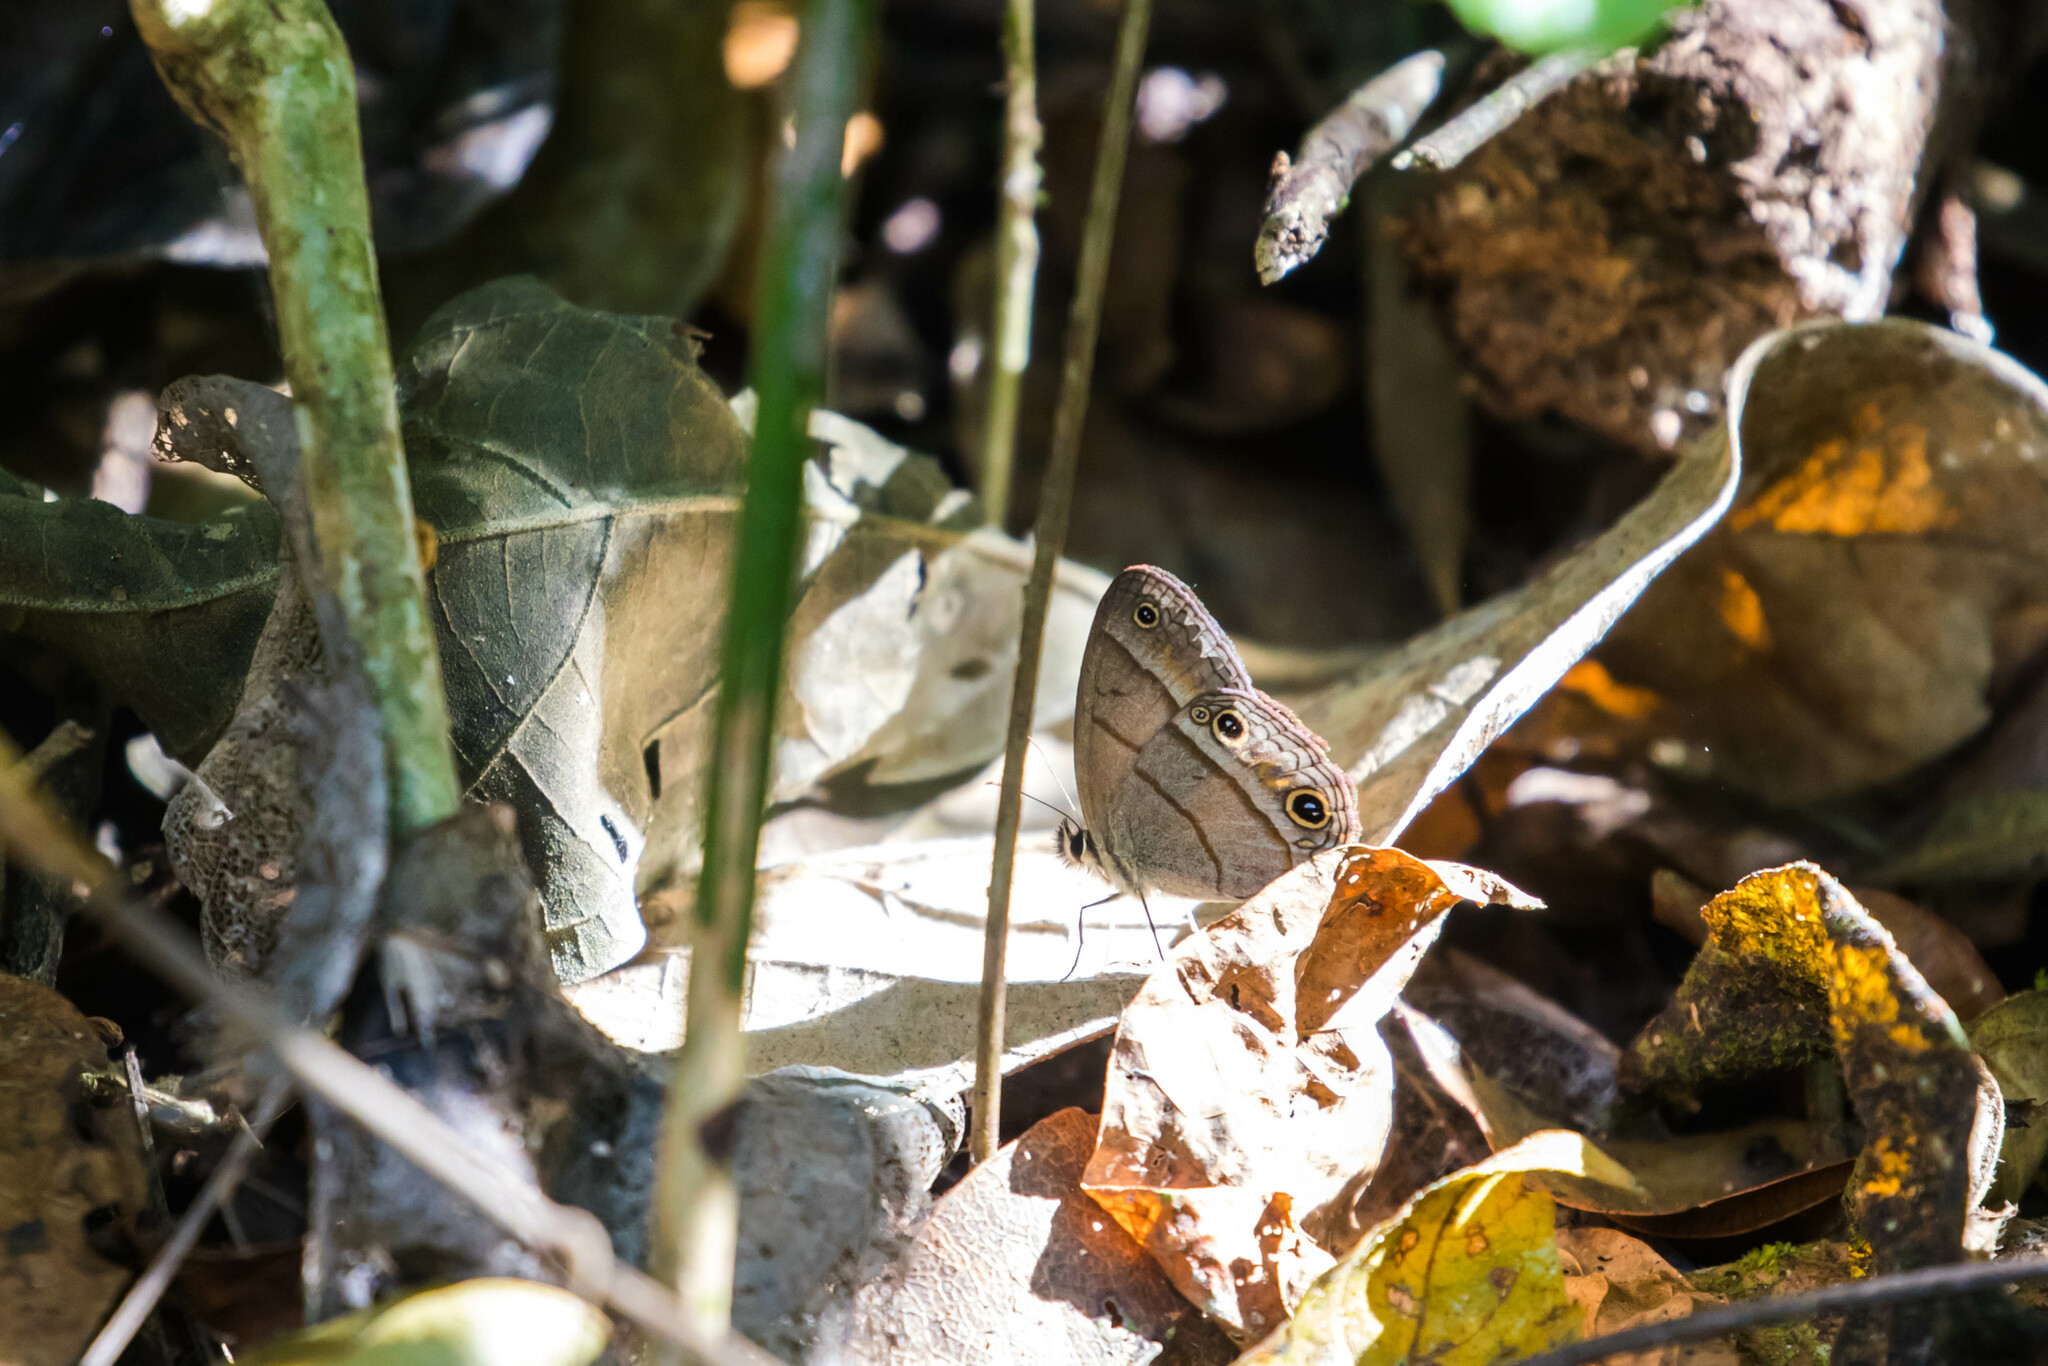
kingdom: Animalia
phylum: Arthropoda
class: Insecta
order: Lepidoptera
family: Nymphalidae
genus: Euptychia
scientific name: Euptychia Cissia pompilia
